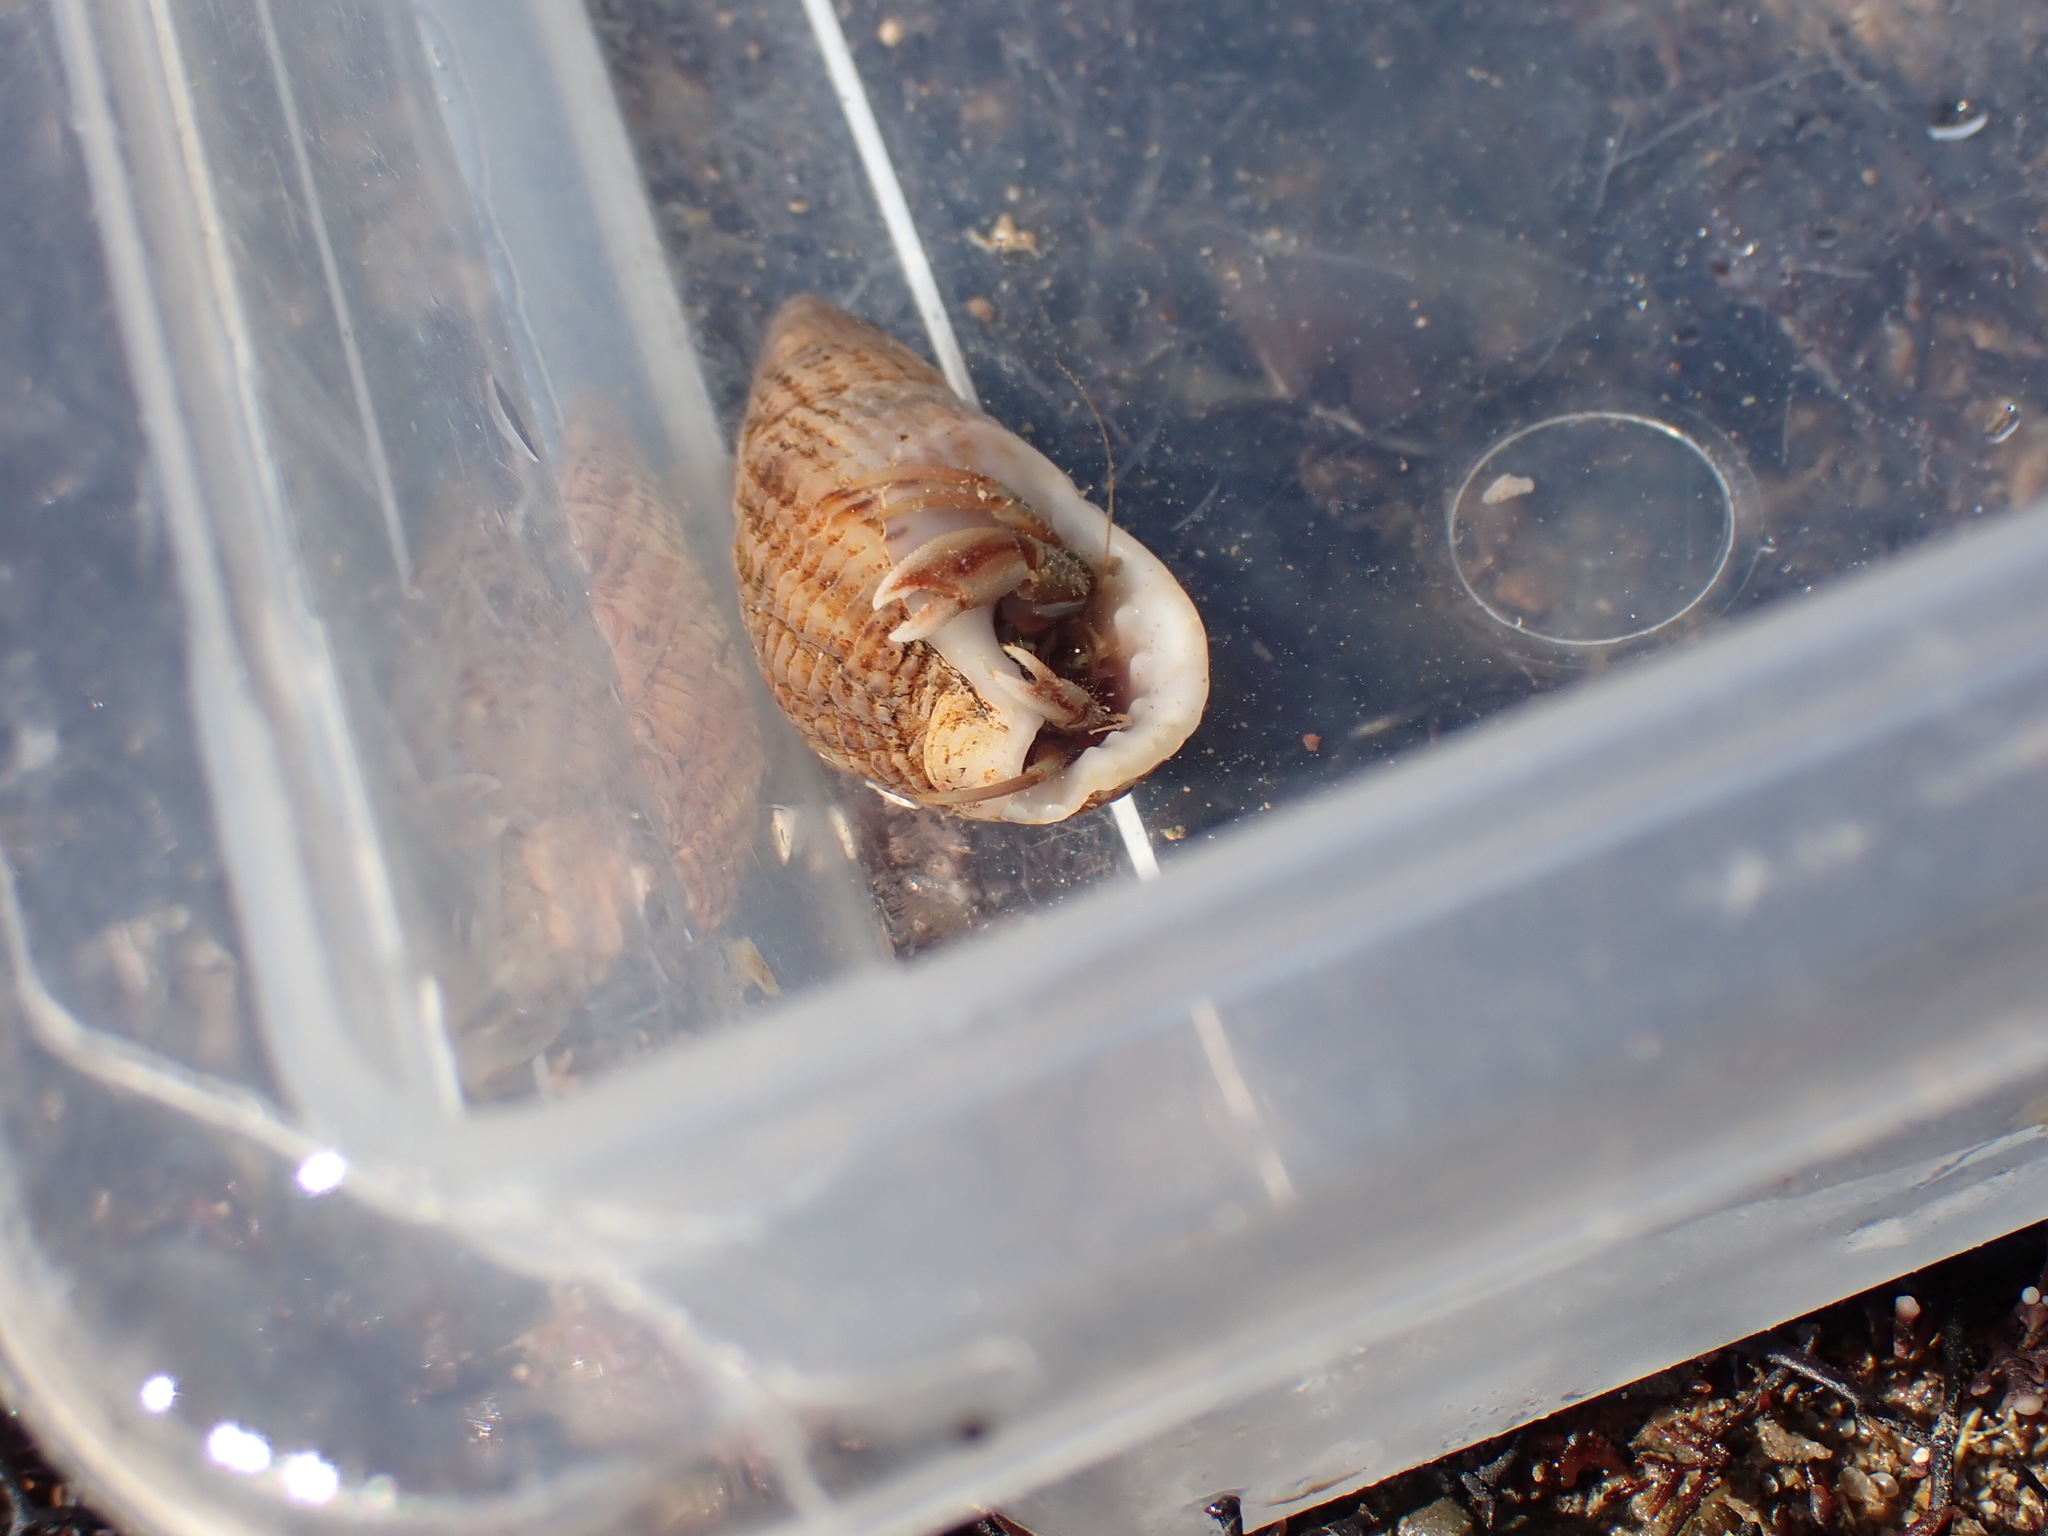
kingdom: Animalia
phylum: Arthropoda
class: Malacostraca
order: Decapoda
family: Paguridae
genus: Pagurus
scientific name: Pagurus bernhardus
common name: Hermit crab
